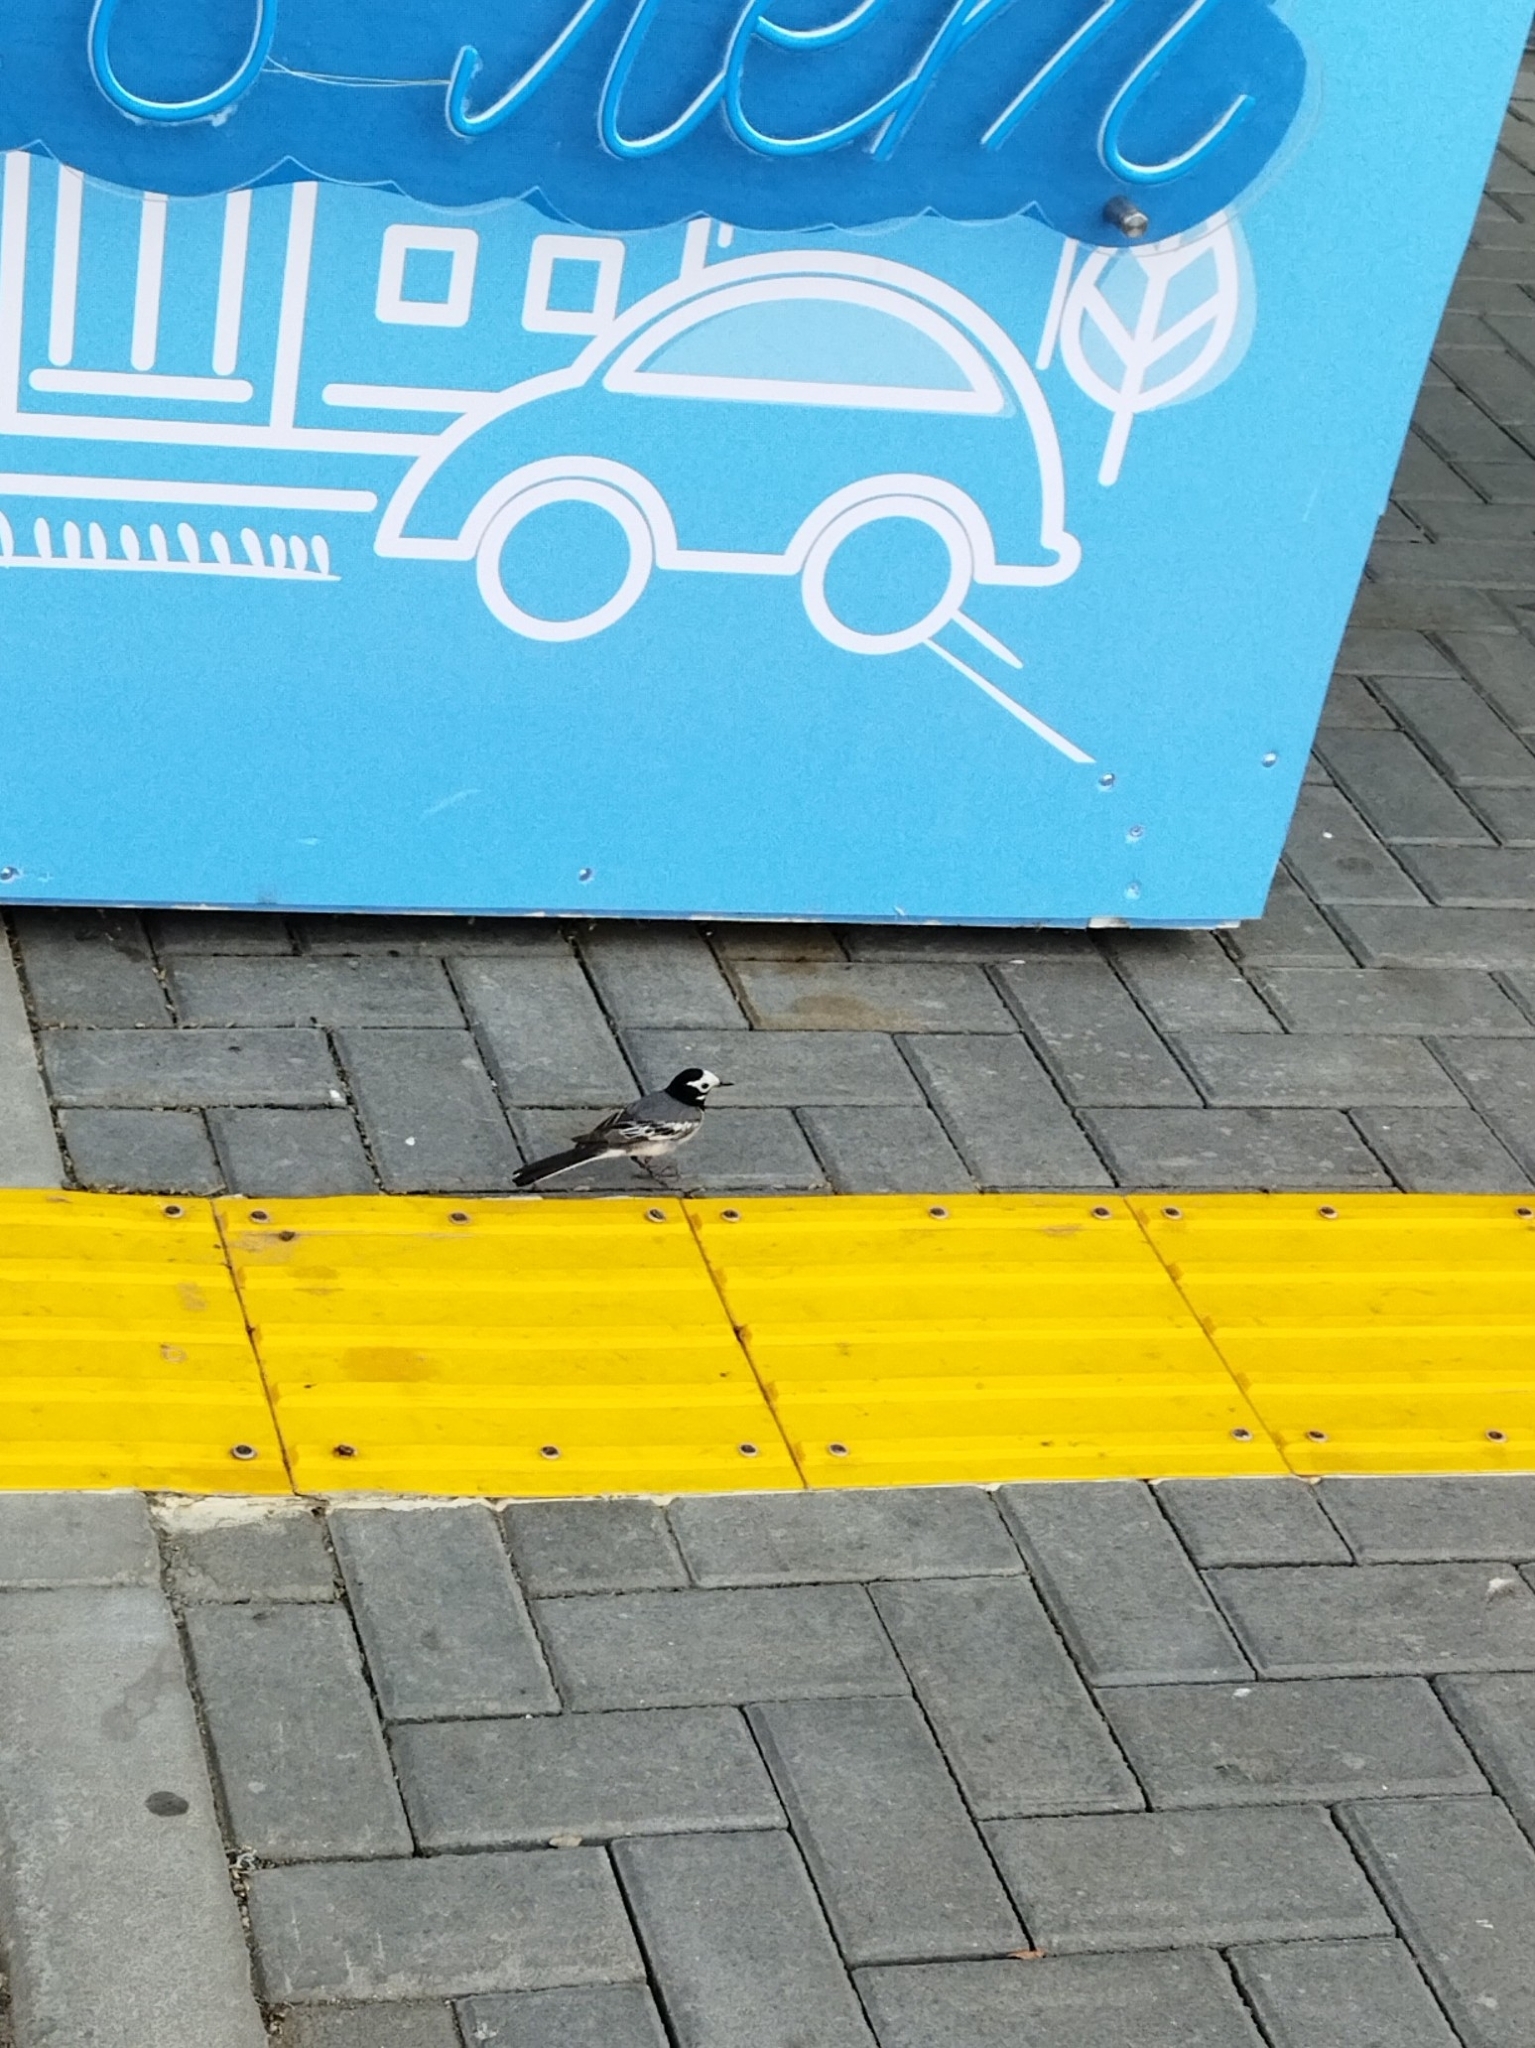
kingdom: Animalia
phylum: Chordata
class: Aves
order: Passeriformes
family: Motacillidae
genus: Motacilla
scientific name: Motacilla alba
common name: White wagtail
